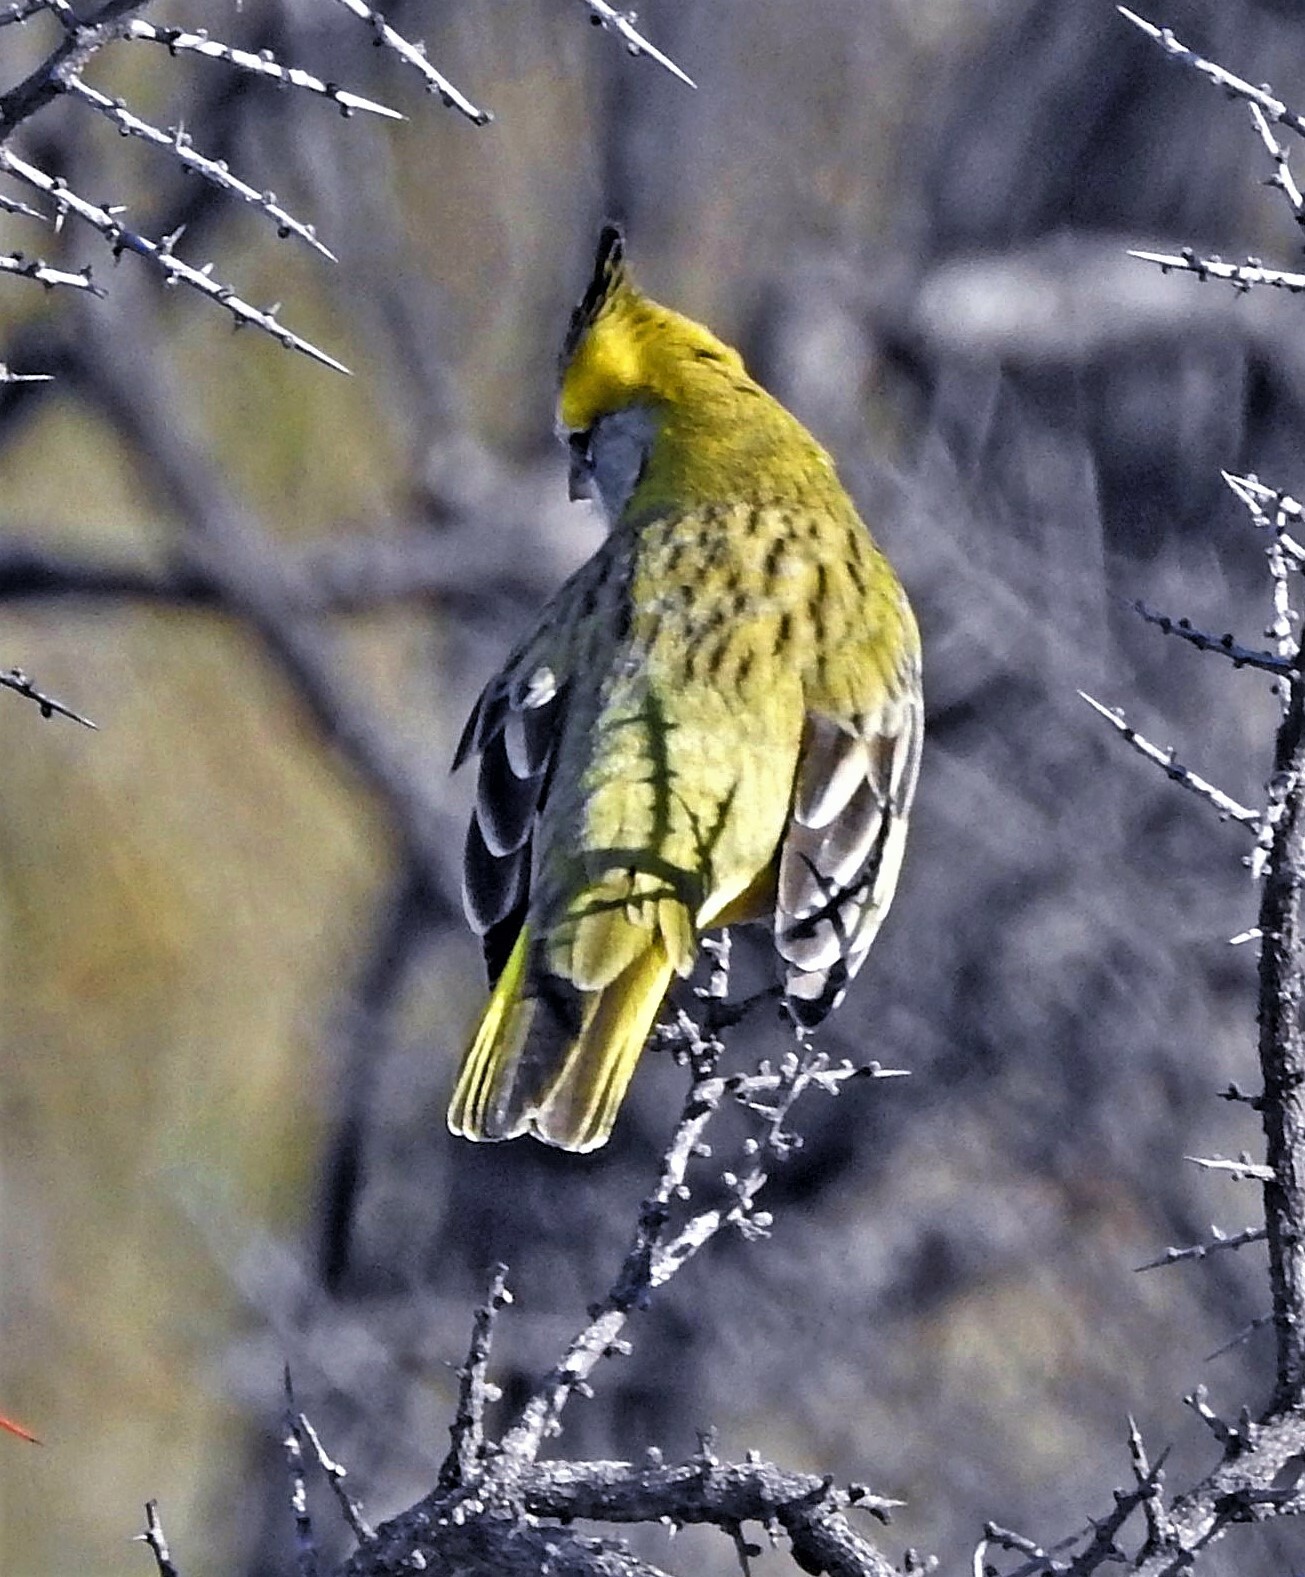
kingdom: Animalia
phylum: Chordata
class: Aves
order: Passeriformes
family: Thraupidae
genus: Gubernatrix
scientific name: Gubernatrix cristata
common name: Yellow cardinal
